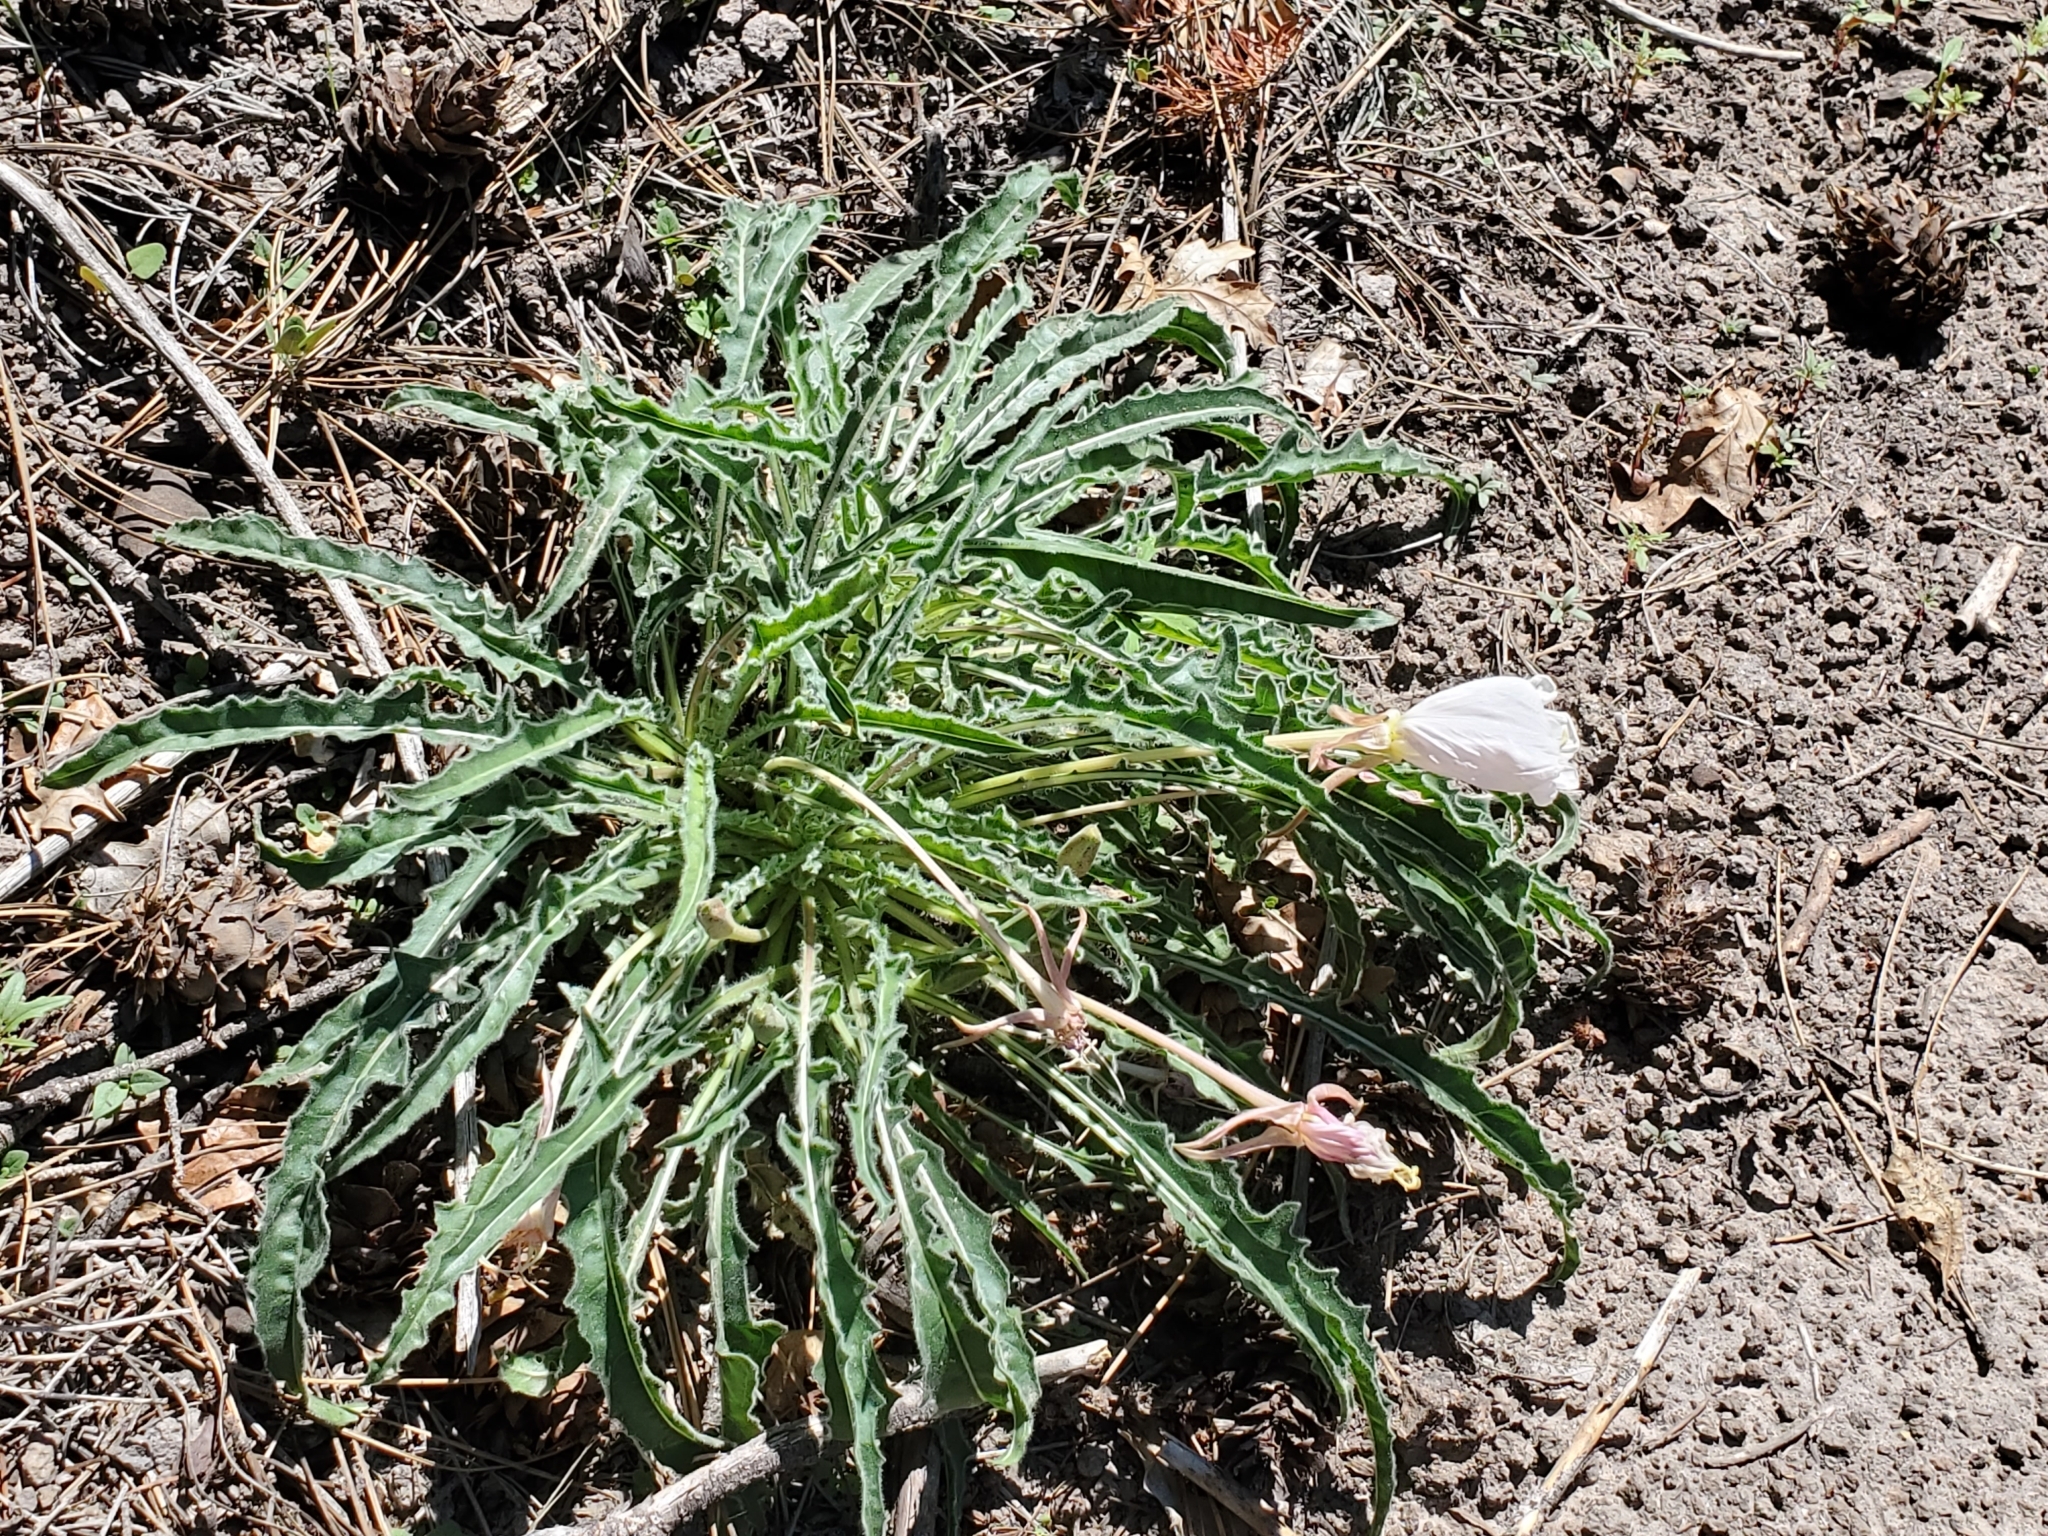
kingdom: Plantae
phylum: Tracheophyta
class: Magnoliopsida
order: Myrtales
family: Onagraceae
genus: Oenothera
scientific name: Oenothera cespitosa
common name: Tufted evening-primrose
